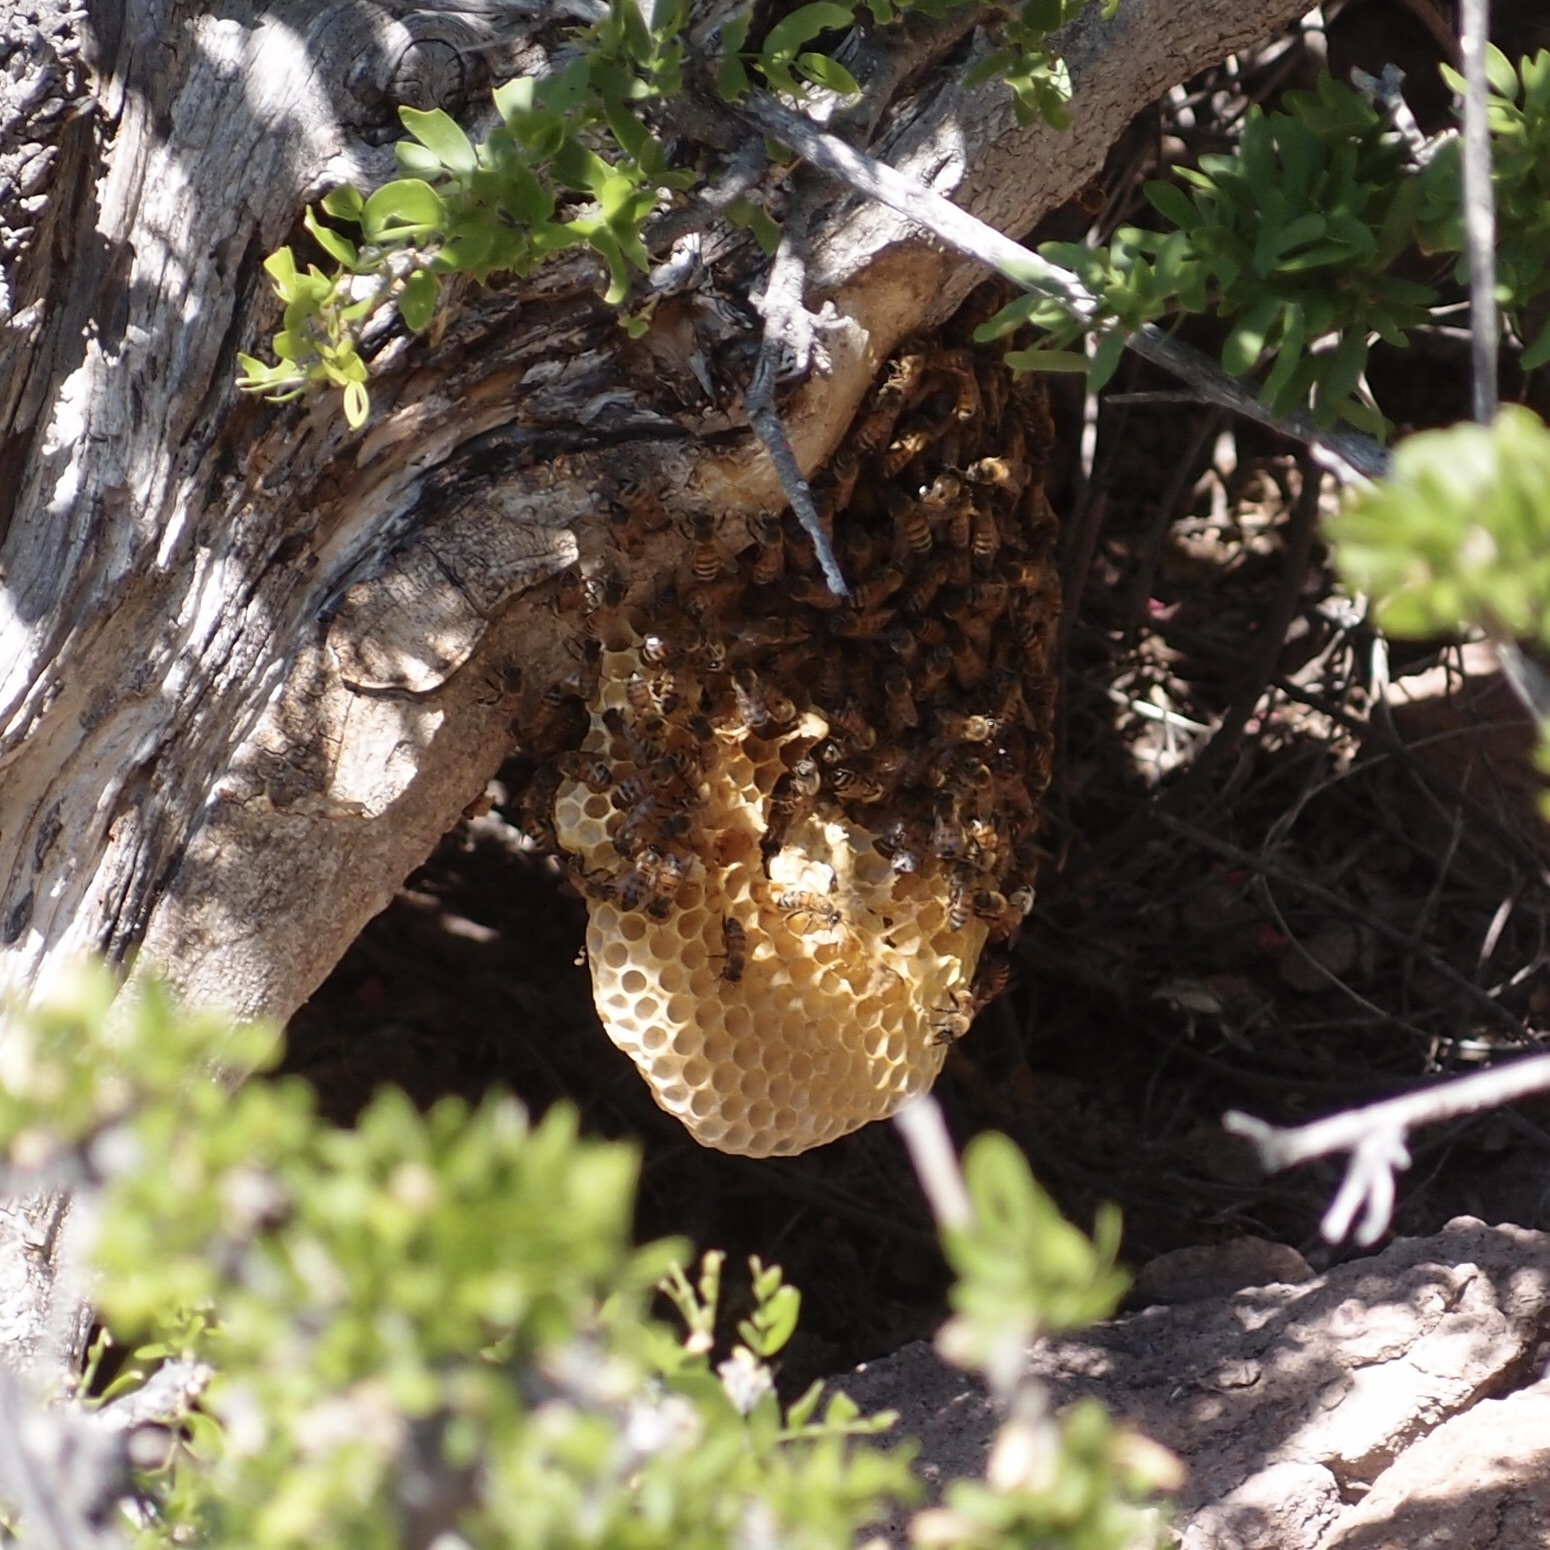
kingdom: Animalia
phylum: Arthropoda
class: Insecta
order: Hymenoptera
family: Apidae
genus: Apis
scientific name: Apis mellifera
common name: Honey bee
